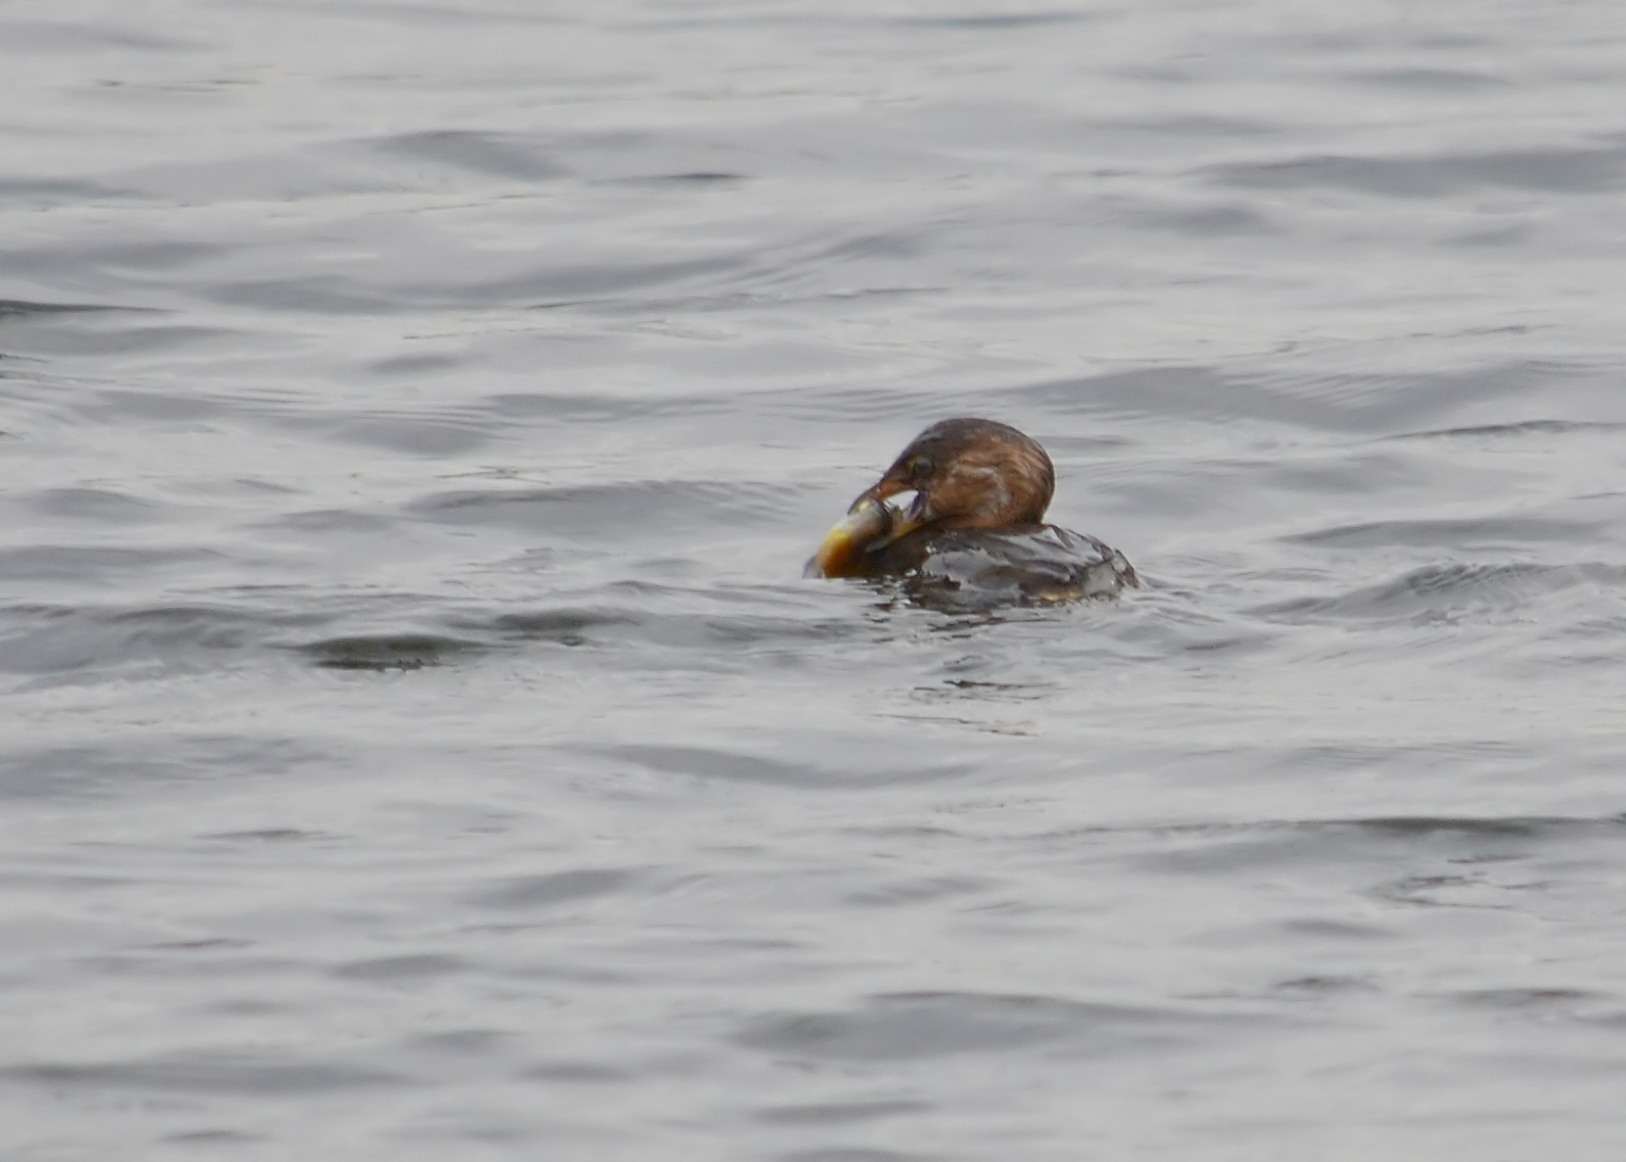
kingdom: Animalia
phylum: Chordata
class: Aves
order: Podicipediformes
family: Podicipedidae
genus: Podilymbus
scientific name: Podilymbus podiceps
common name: Pied-billed grebe
